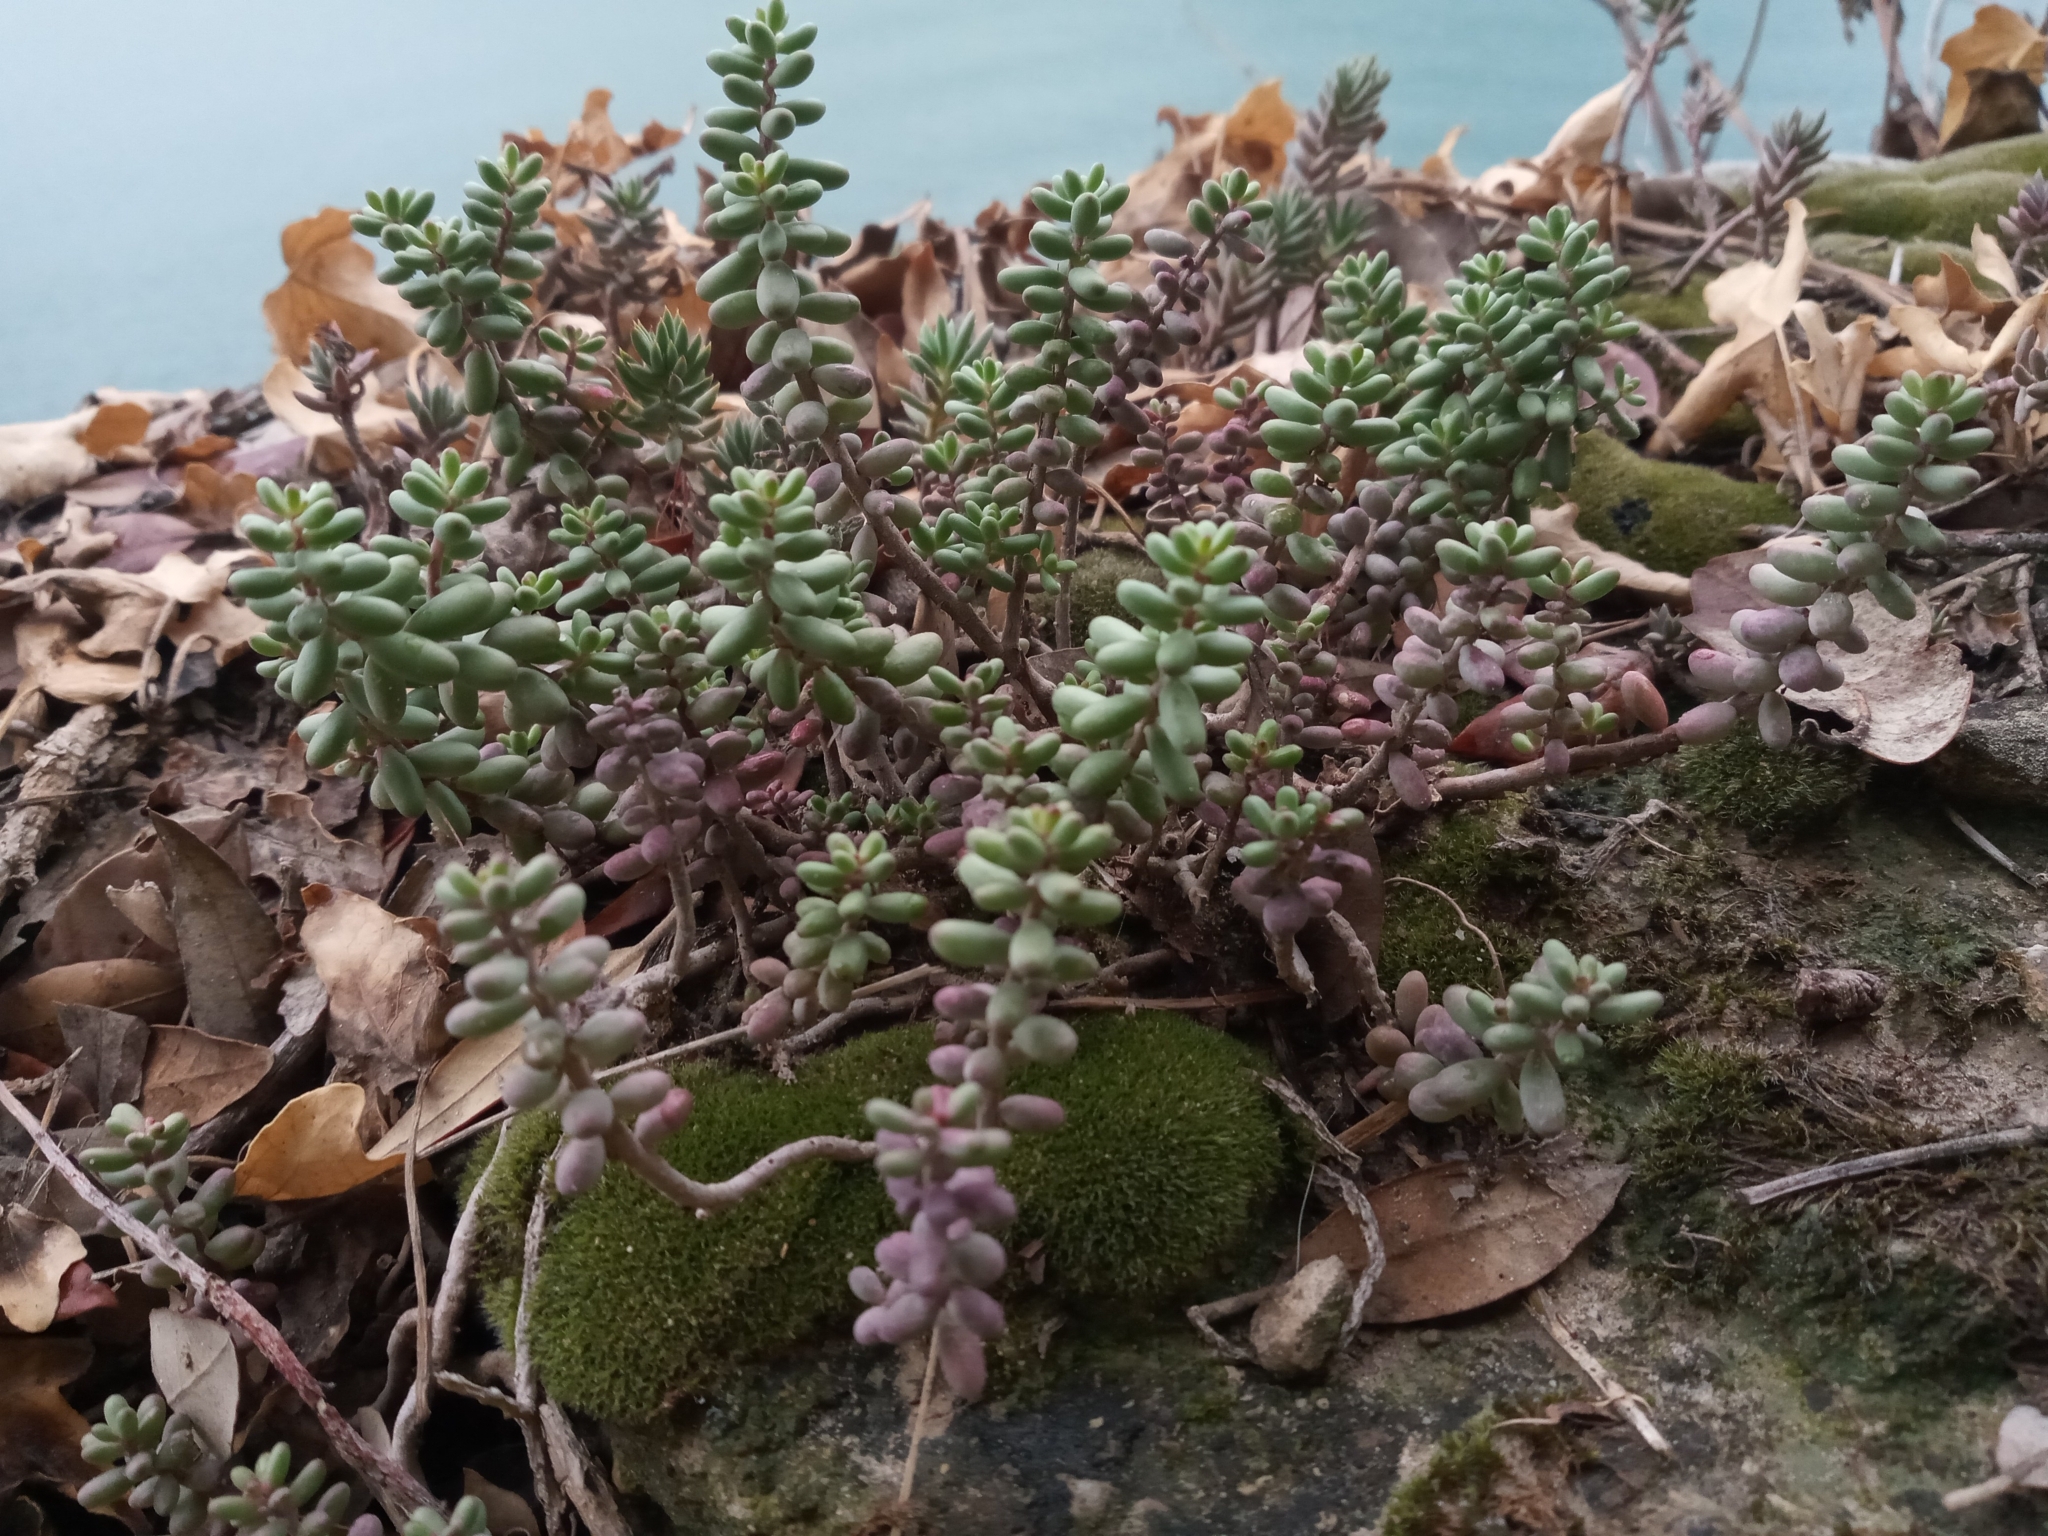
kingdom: Plantae
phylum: Tracheophyta
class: Magnoliopsida
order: Saxifragales
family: Crassulaceae
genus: Sedum
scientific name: Sedum album
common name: White stonecrop
